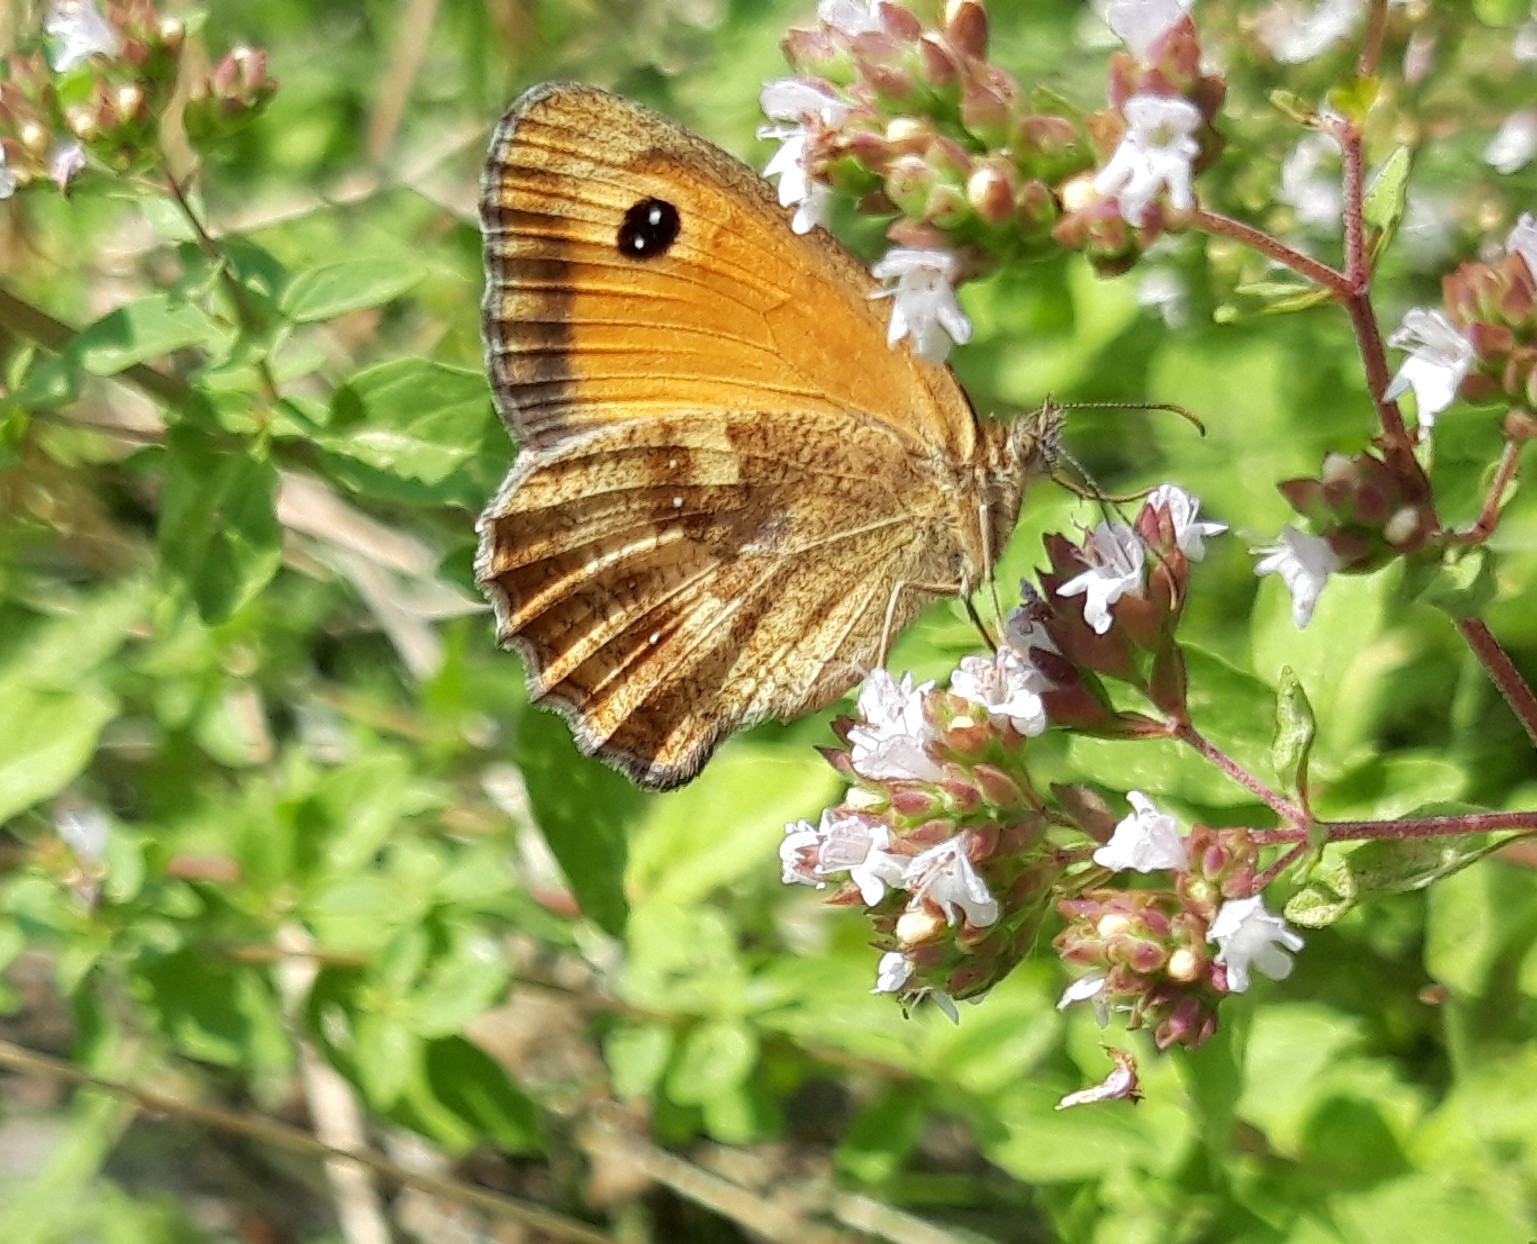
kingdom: Animalia
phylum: Arthropoda
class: Insecta
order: Lepidoptera
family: Nymphalidae
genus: Pyronia
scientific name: Pyronia tithonus
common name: Gatekeeper
